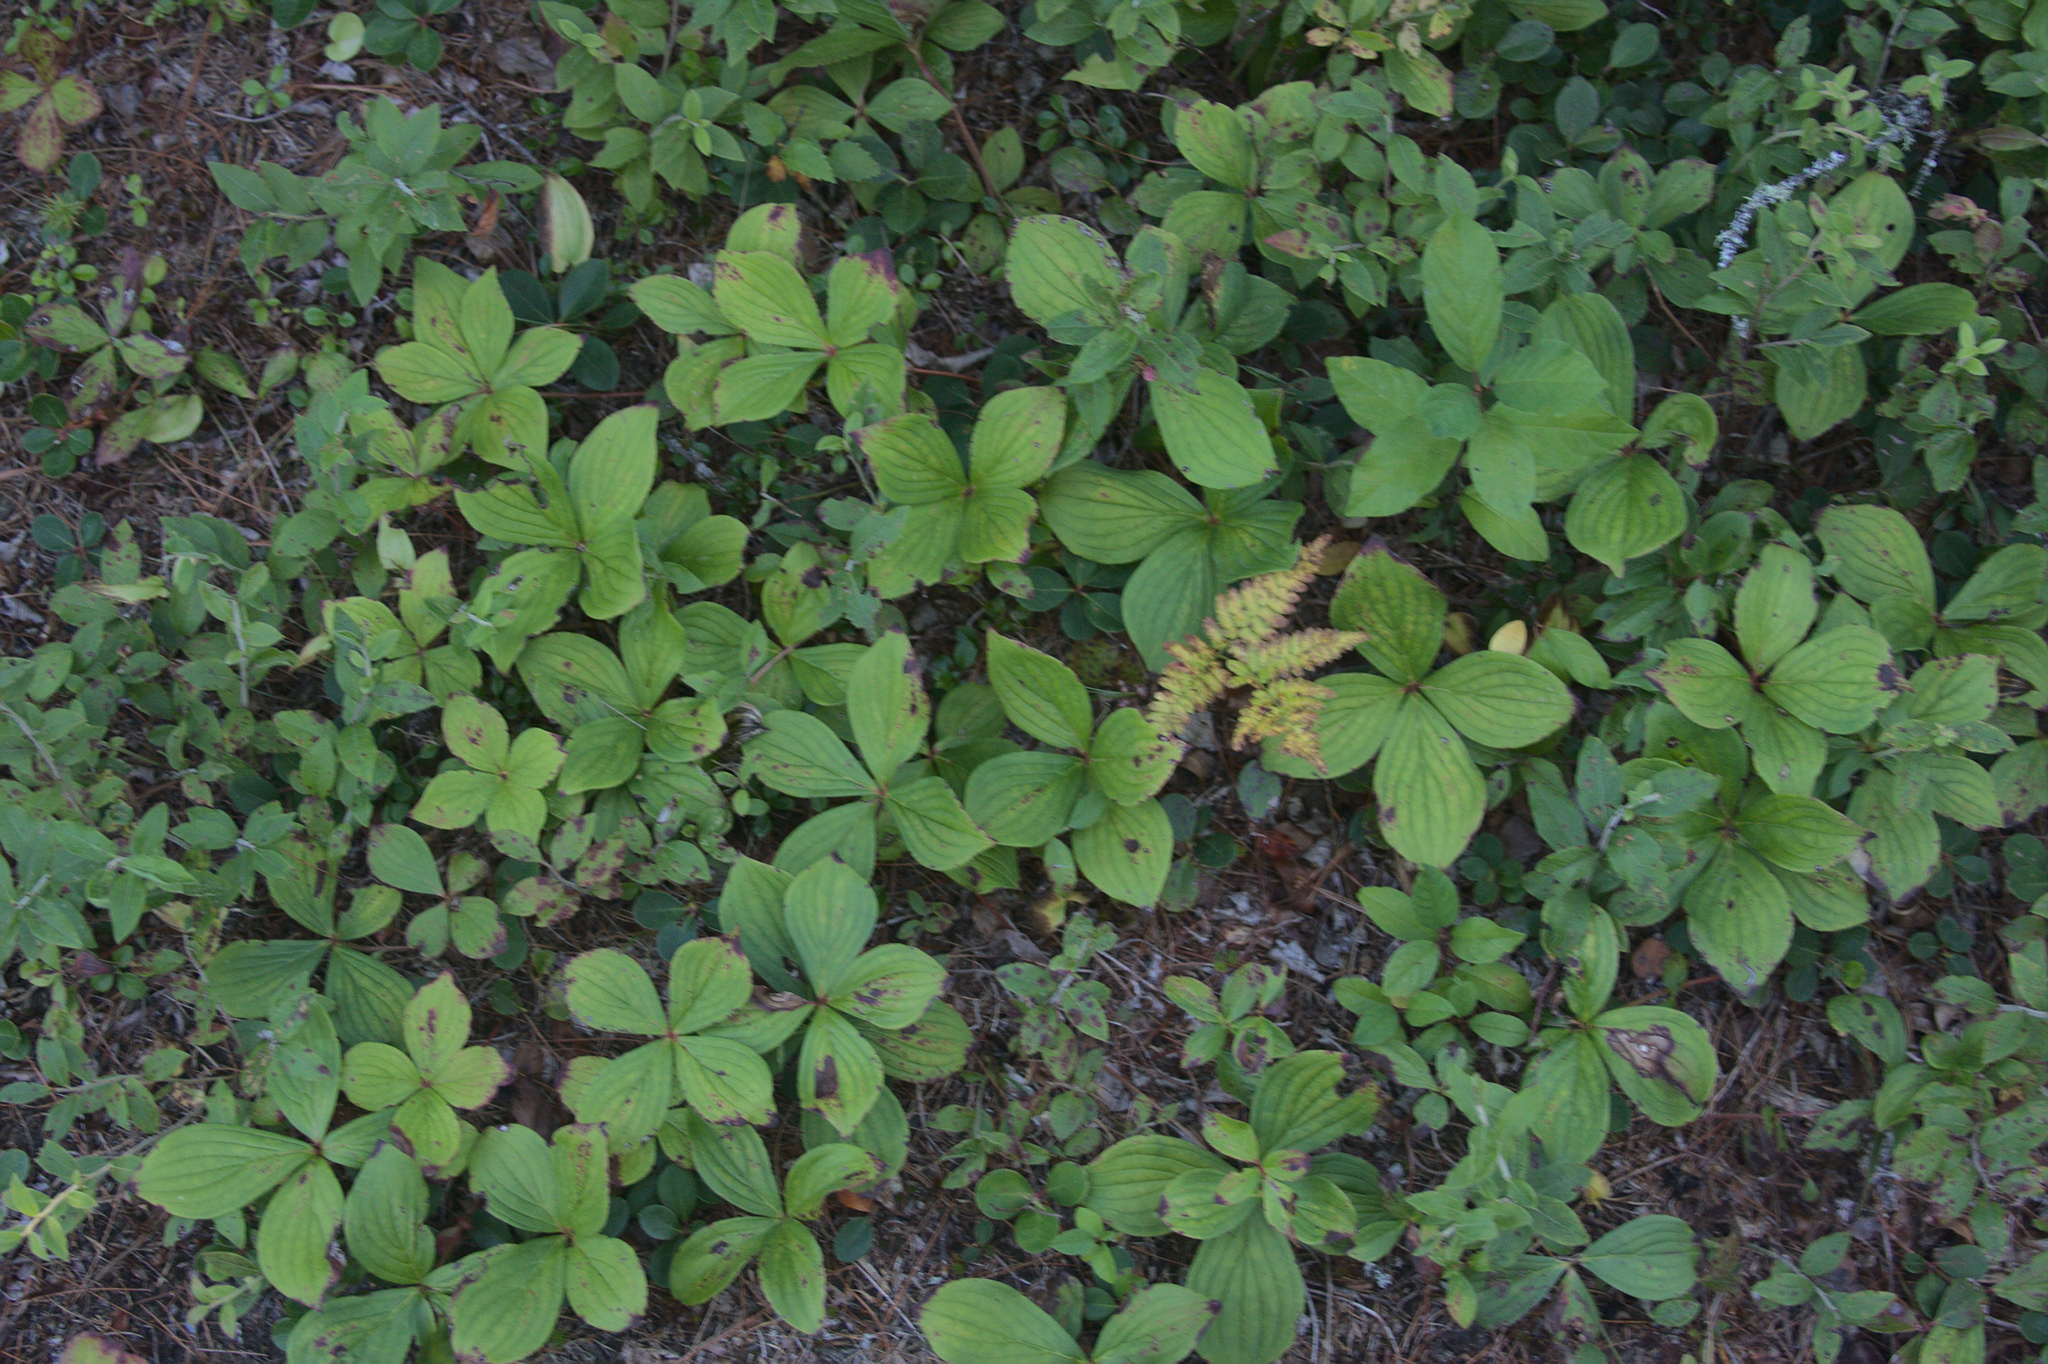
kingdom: Plantae
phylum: Tracheophyta
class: Magnoliopsida
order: Cornales
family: Cornaceae
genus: Cornus
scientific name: Cornus canadensis
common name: Creeping dogwood
